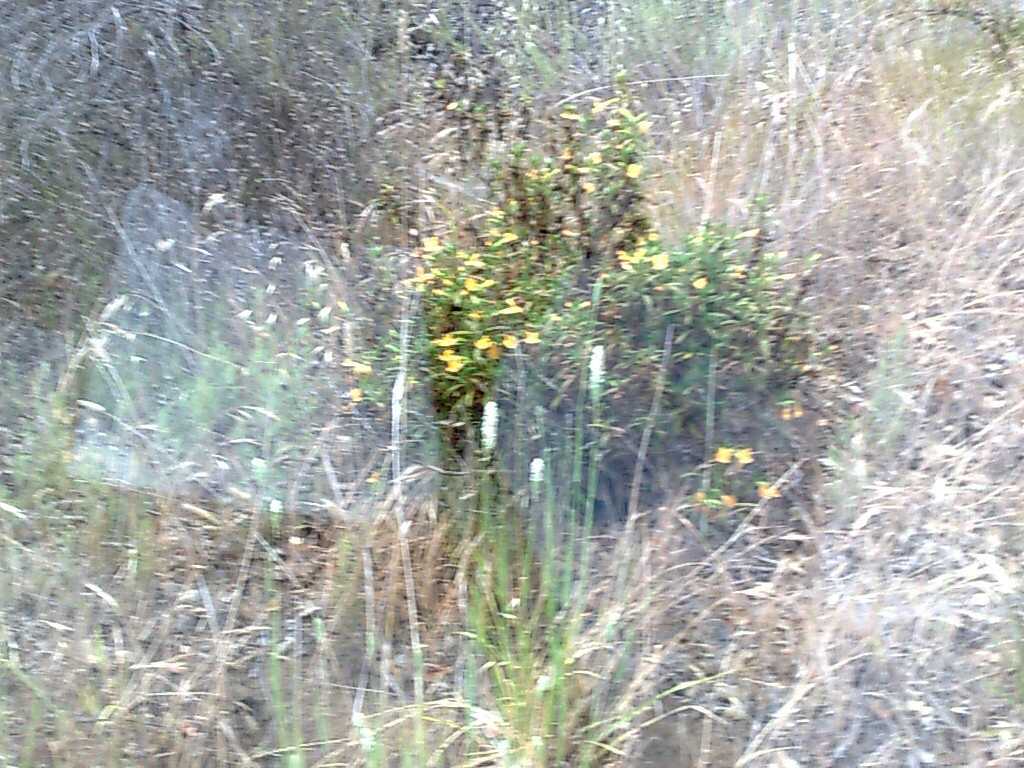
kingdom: Plantae
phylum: Tracheophyta
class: Liliopsida
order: Poales
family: Poaceae
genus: Phalaris
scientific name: Phalaris aquatica
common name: Bulbous canary-grass
